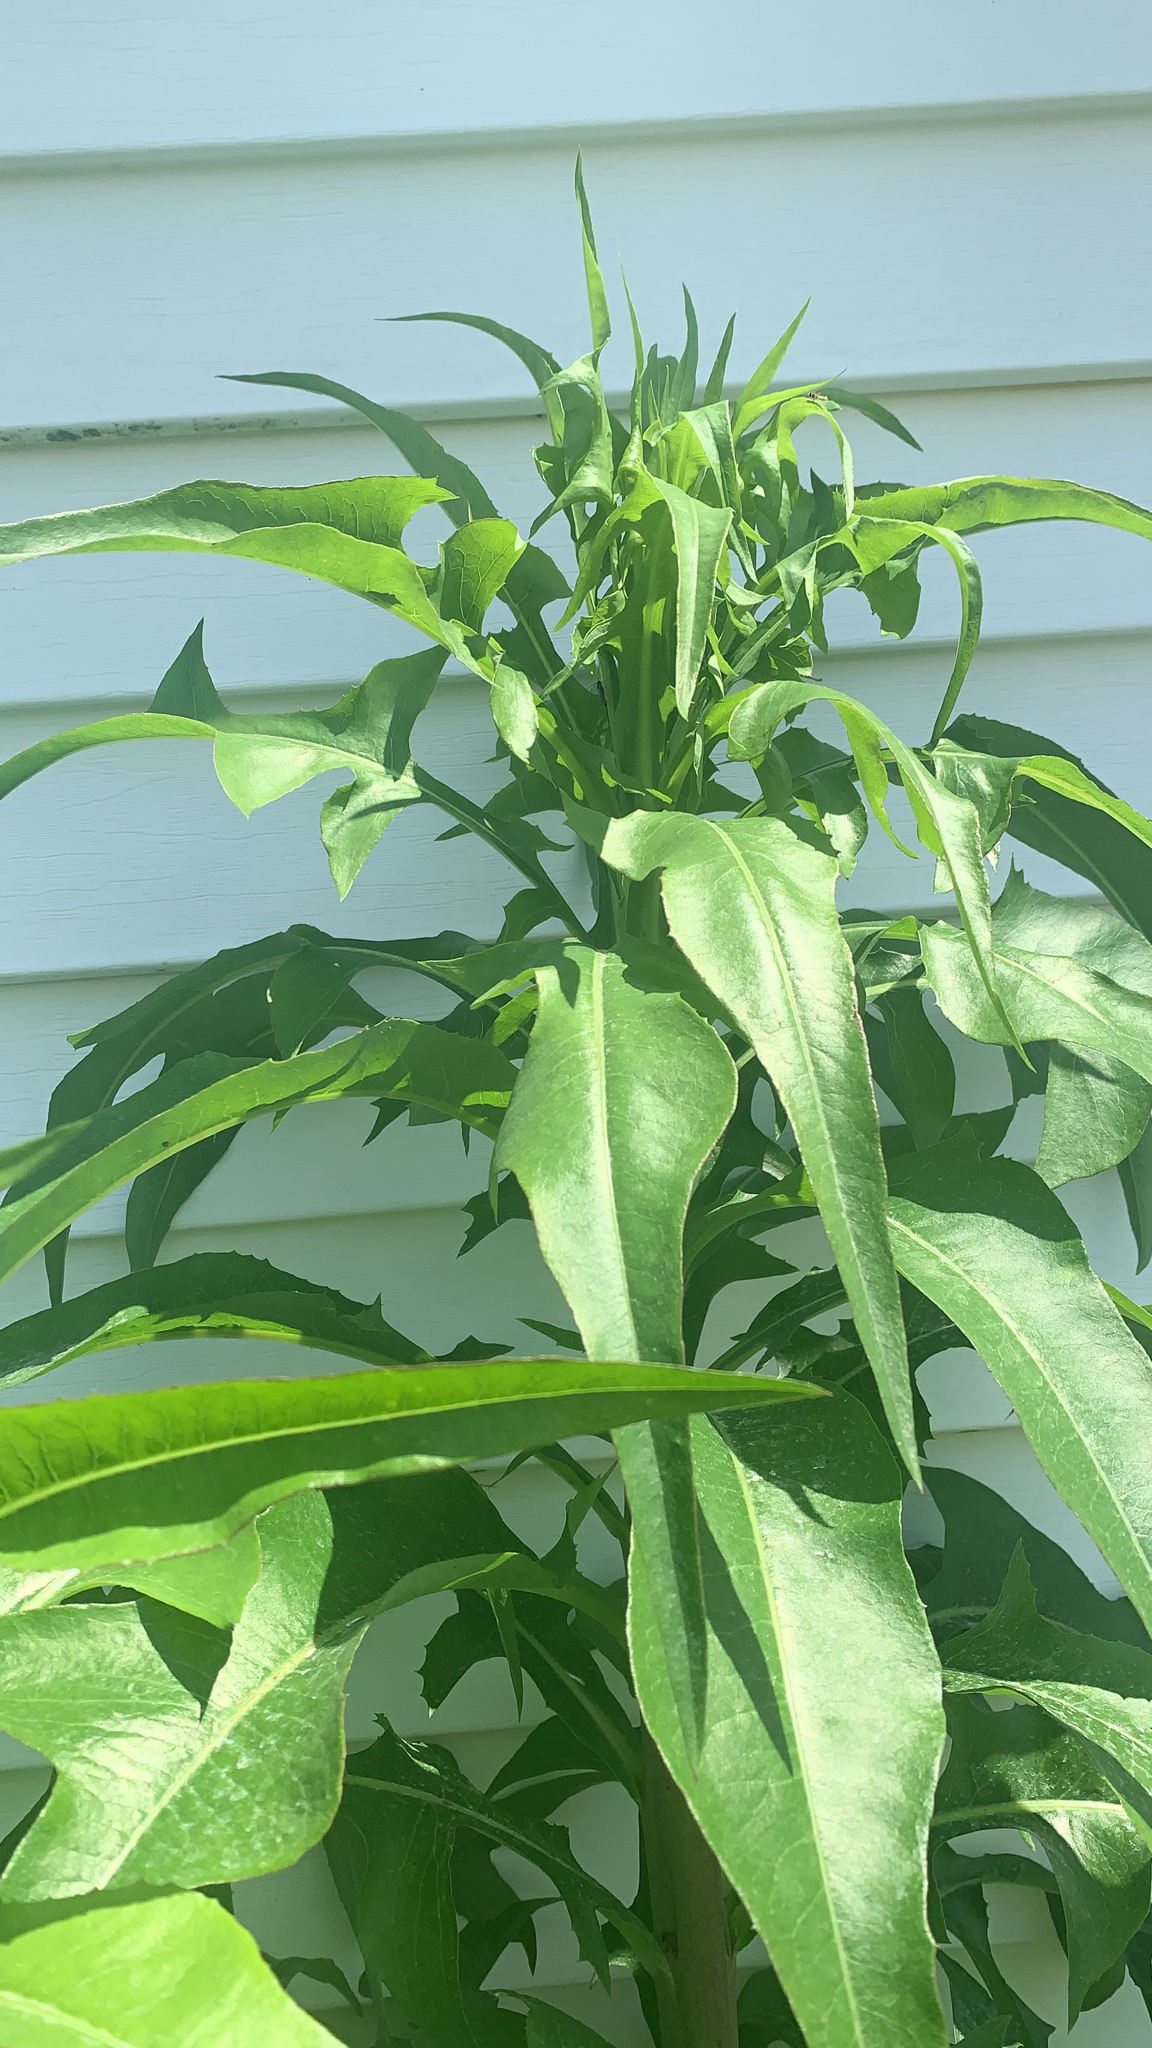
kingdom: Plantae
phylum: Tracheophyta
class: Magnoliopsida
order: Asterales
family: Asteraceae
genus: Lactuca
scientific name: Lactuca canadensis
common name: Canada lettuce
